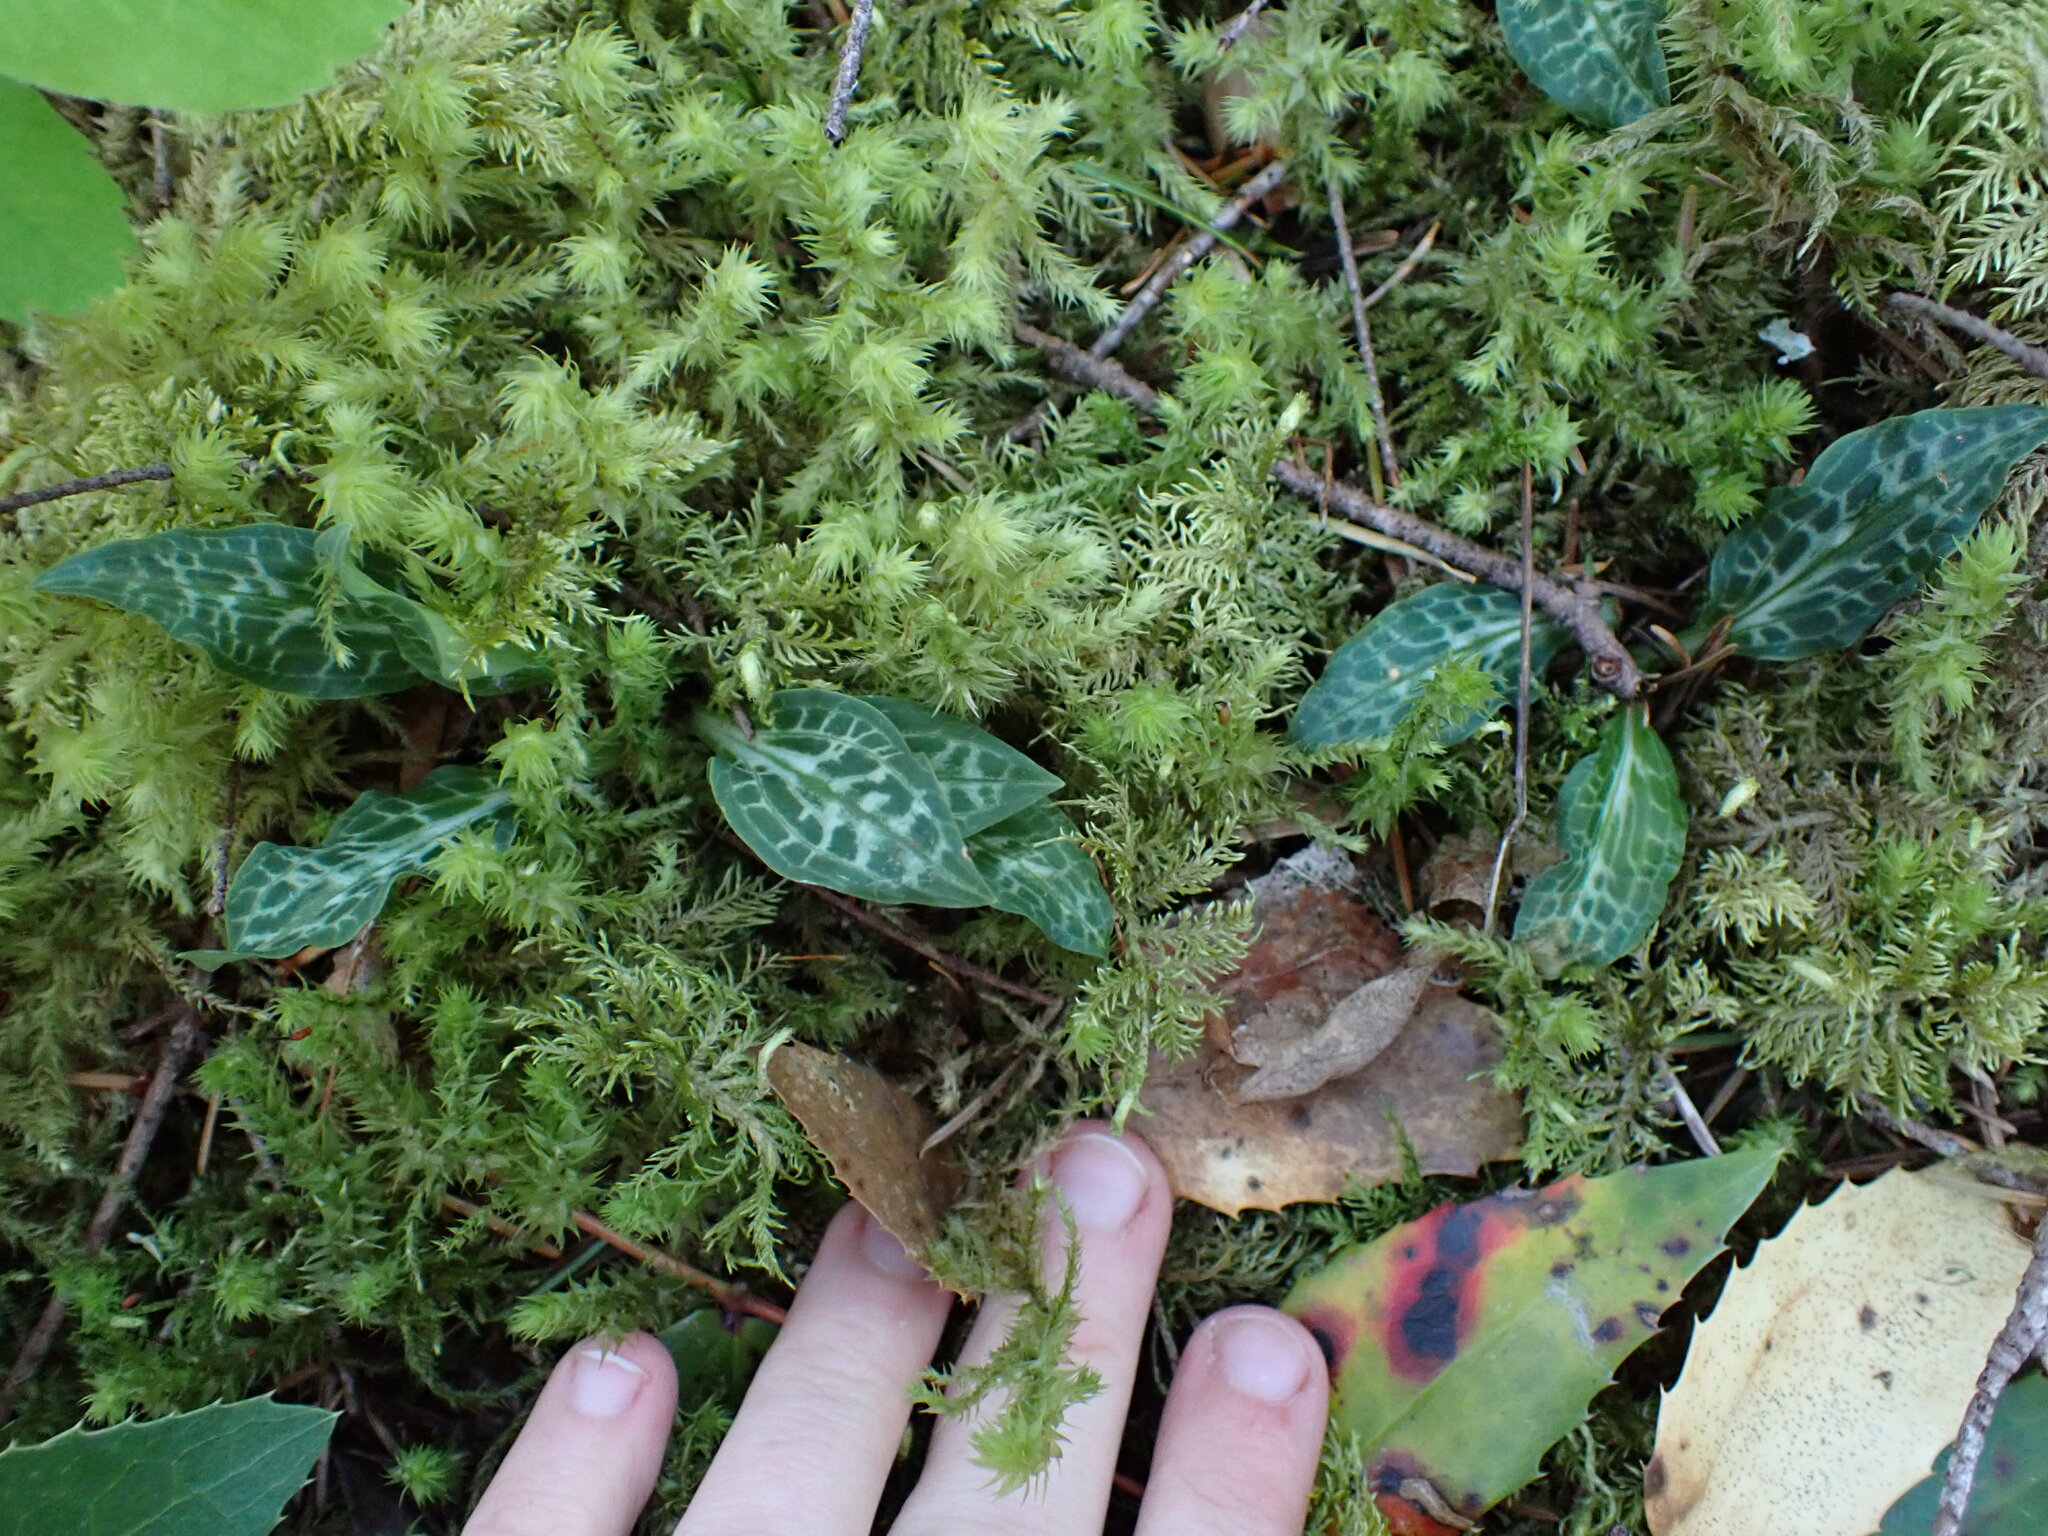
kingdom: Plantae
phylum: Tracheophyta
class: Liliopsida
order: Asparagales
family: Orchidaceae
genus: Goodyera
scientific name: Goodyera oblongifolia
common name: Giant rattlesnake-plantain
